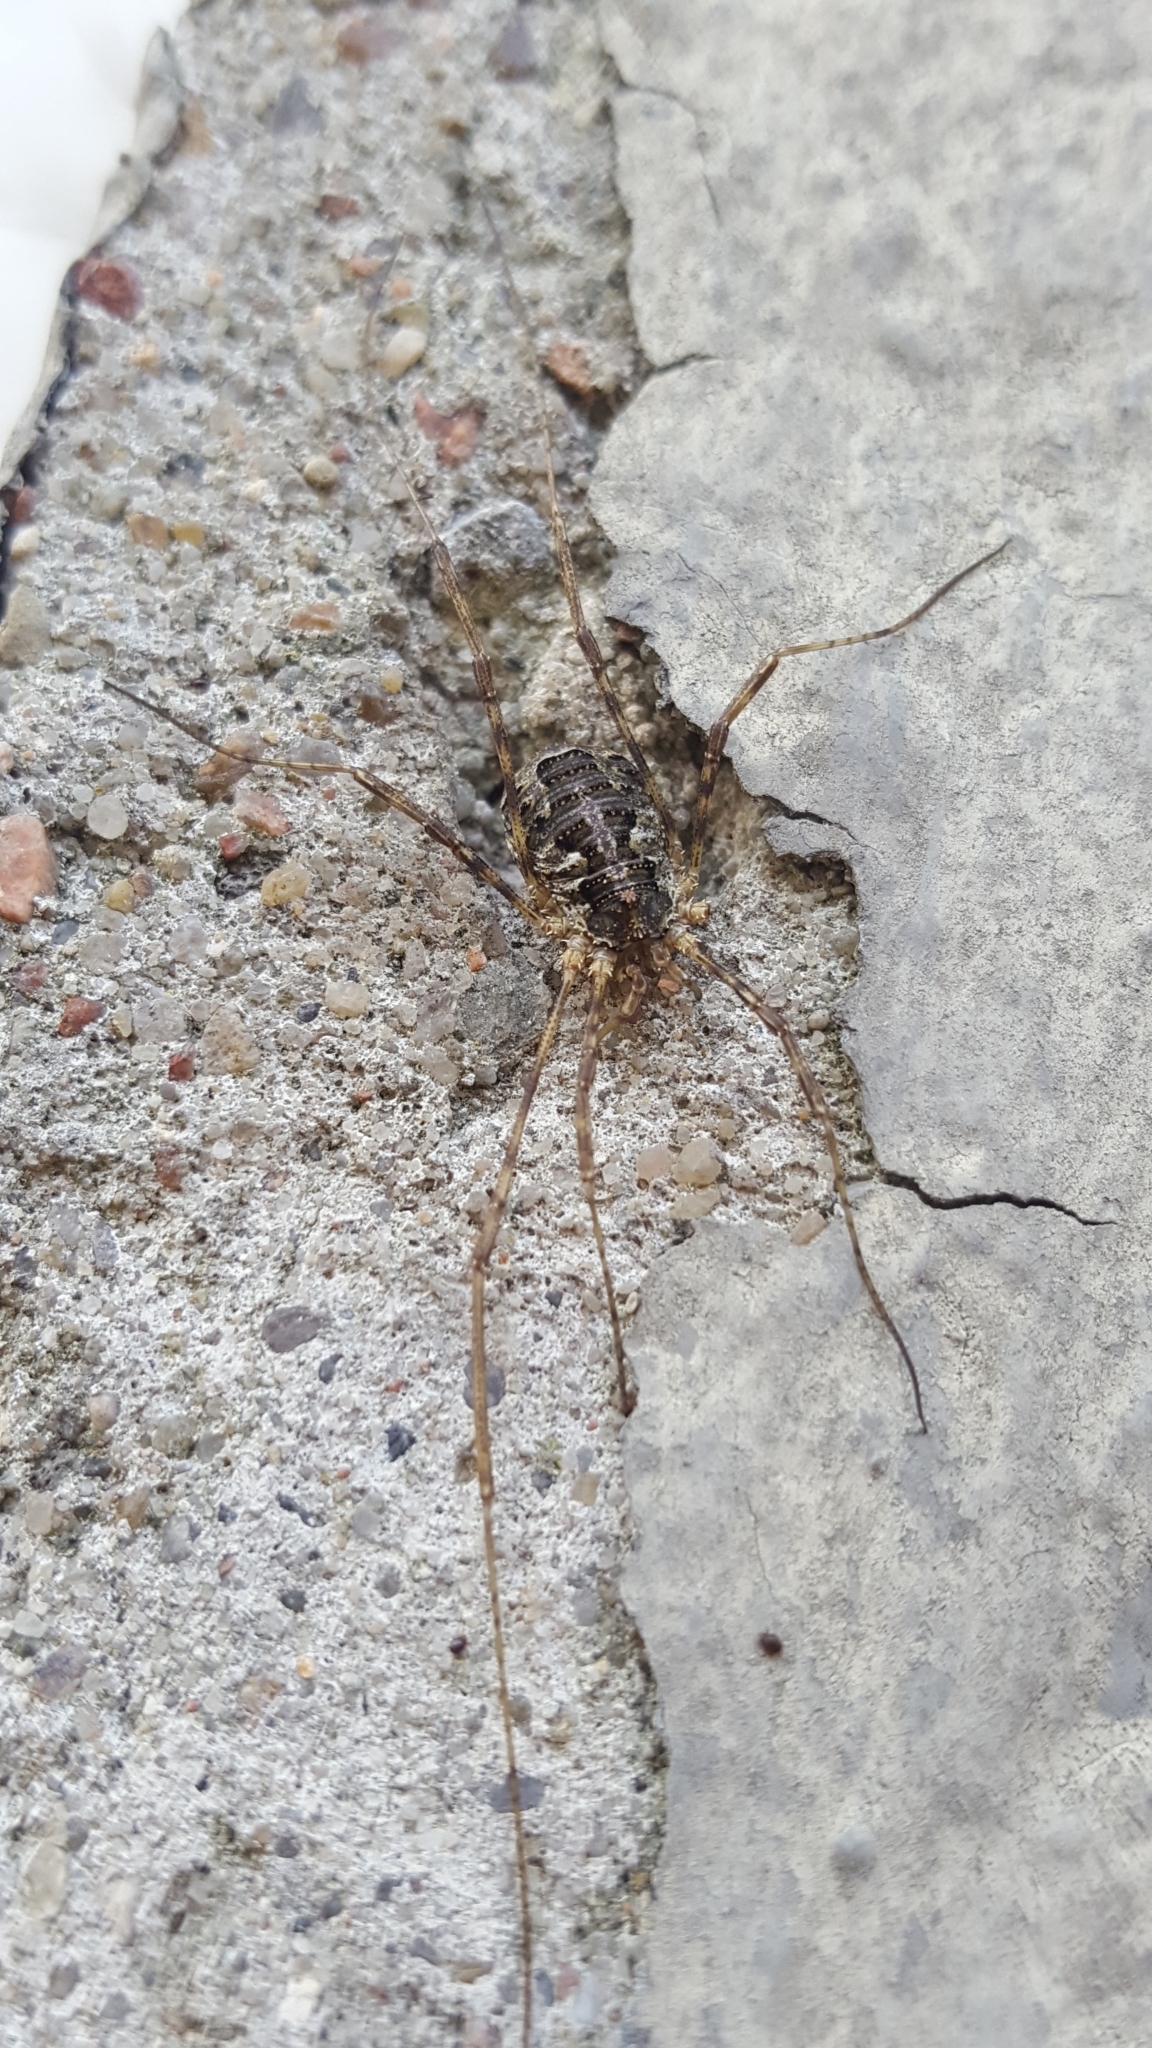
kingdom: Animalia
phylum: Arthropoda
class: Arachnida
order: Opiliones
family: Phalangiidae
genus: Lacinius
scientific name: Lacinius dentiger
